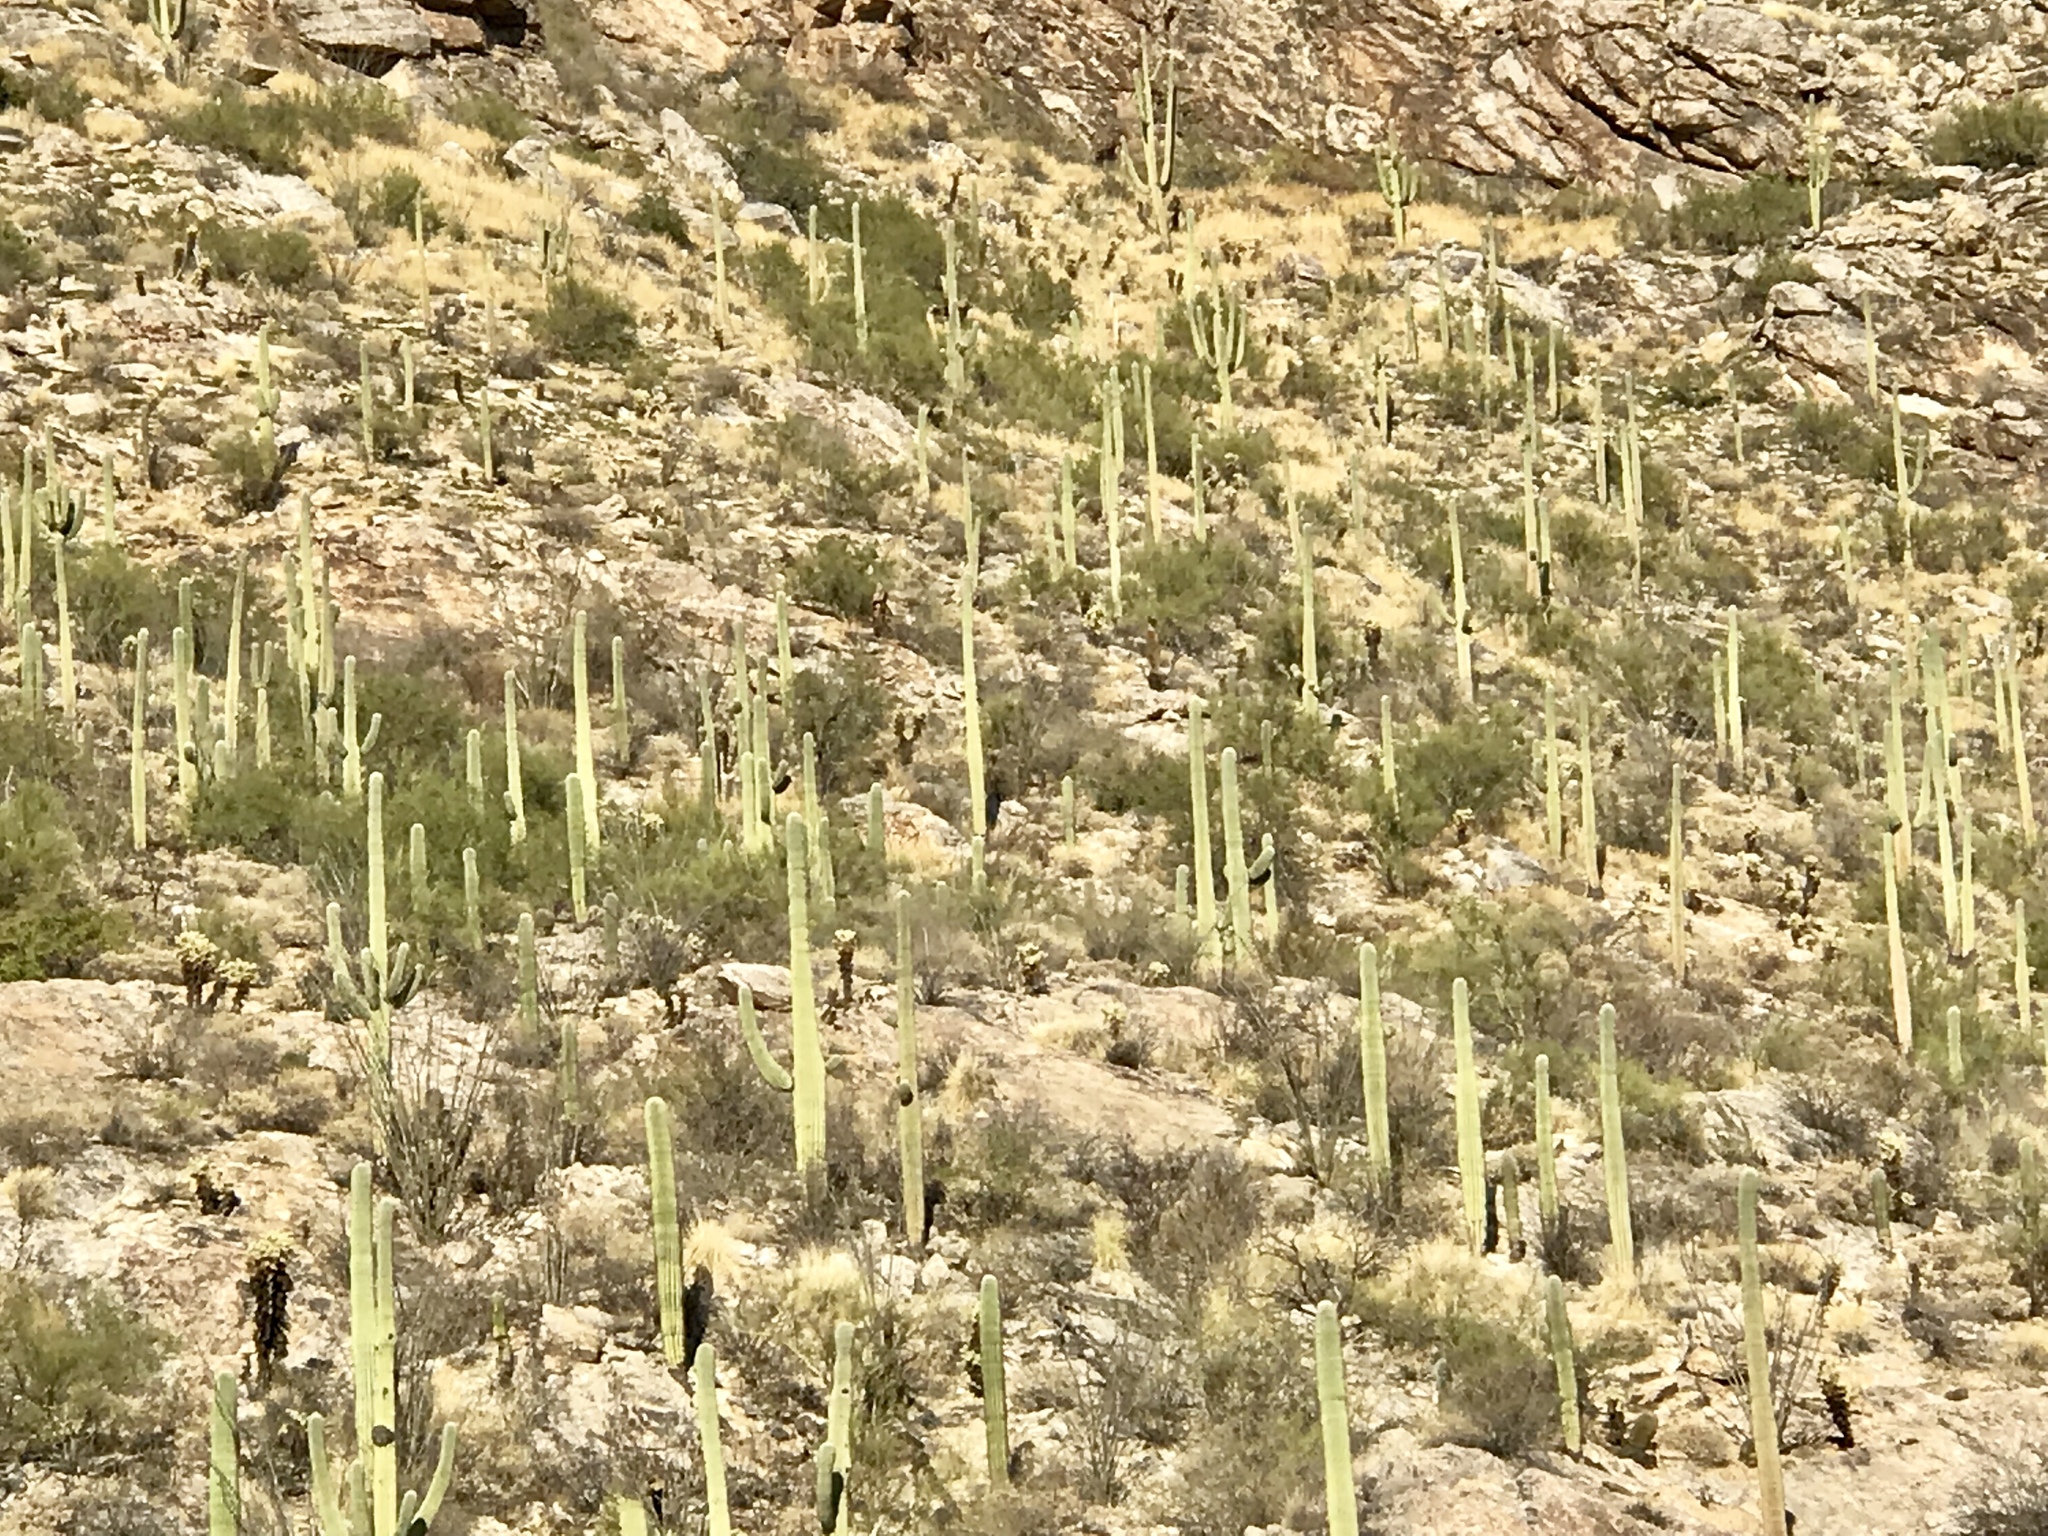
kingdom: Plantae
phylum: Tracheophyta
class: Magnoliopsida
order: Caryophyllales
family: Cactaceae
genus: Carnegiea
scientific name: Carnegiea gigantea
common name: Saguaro
